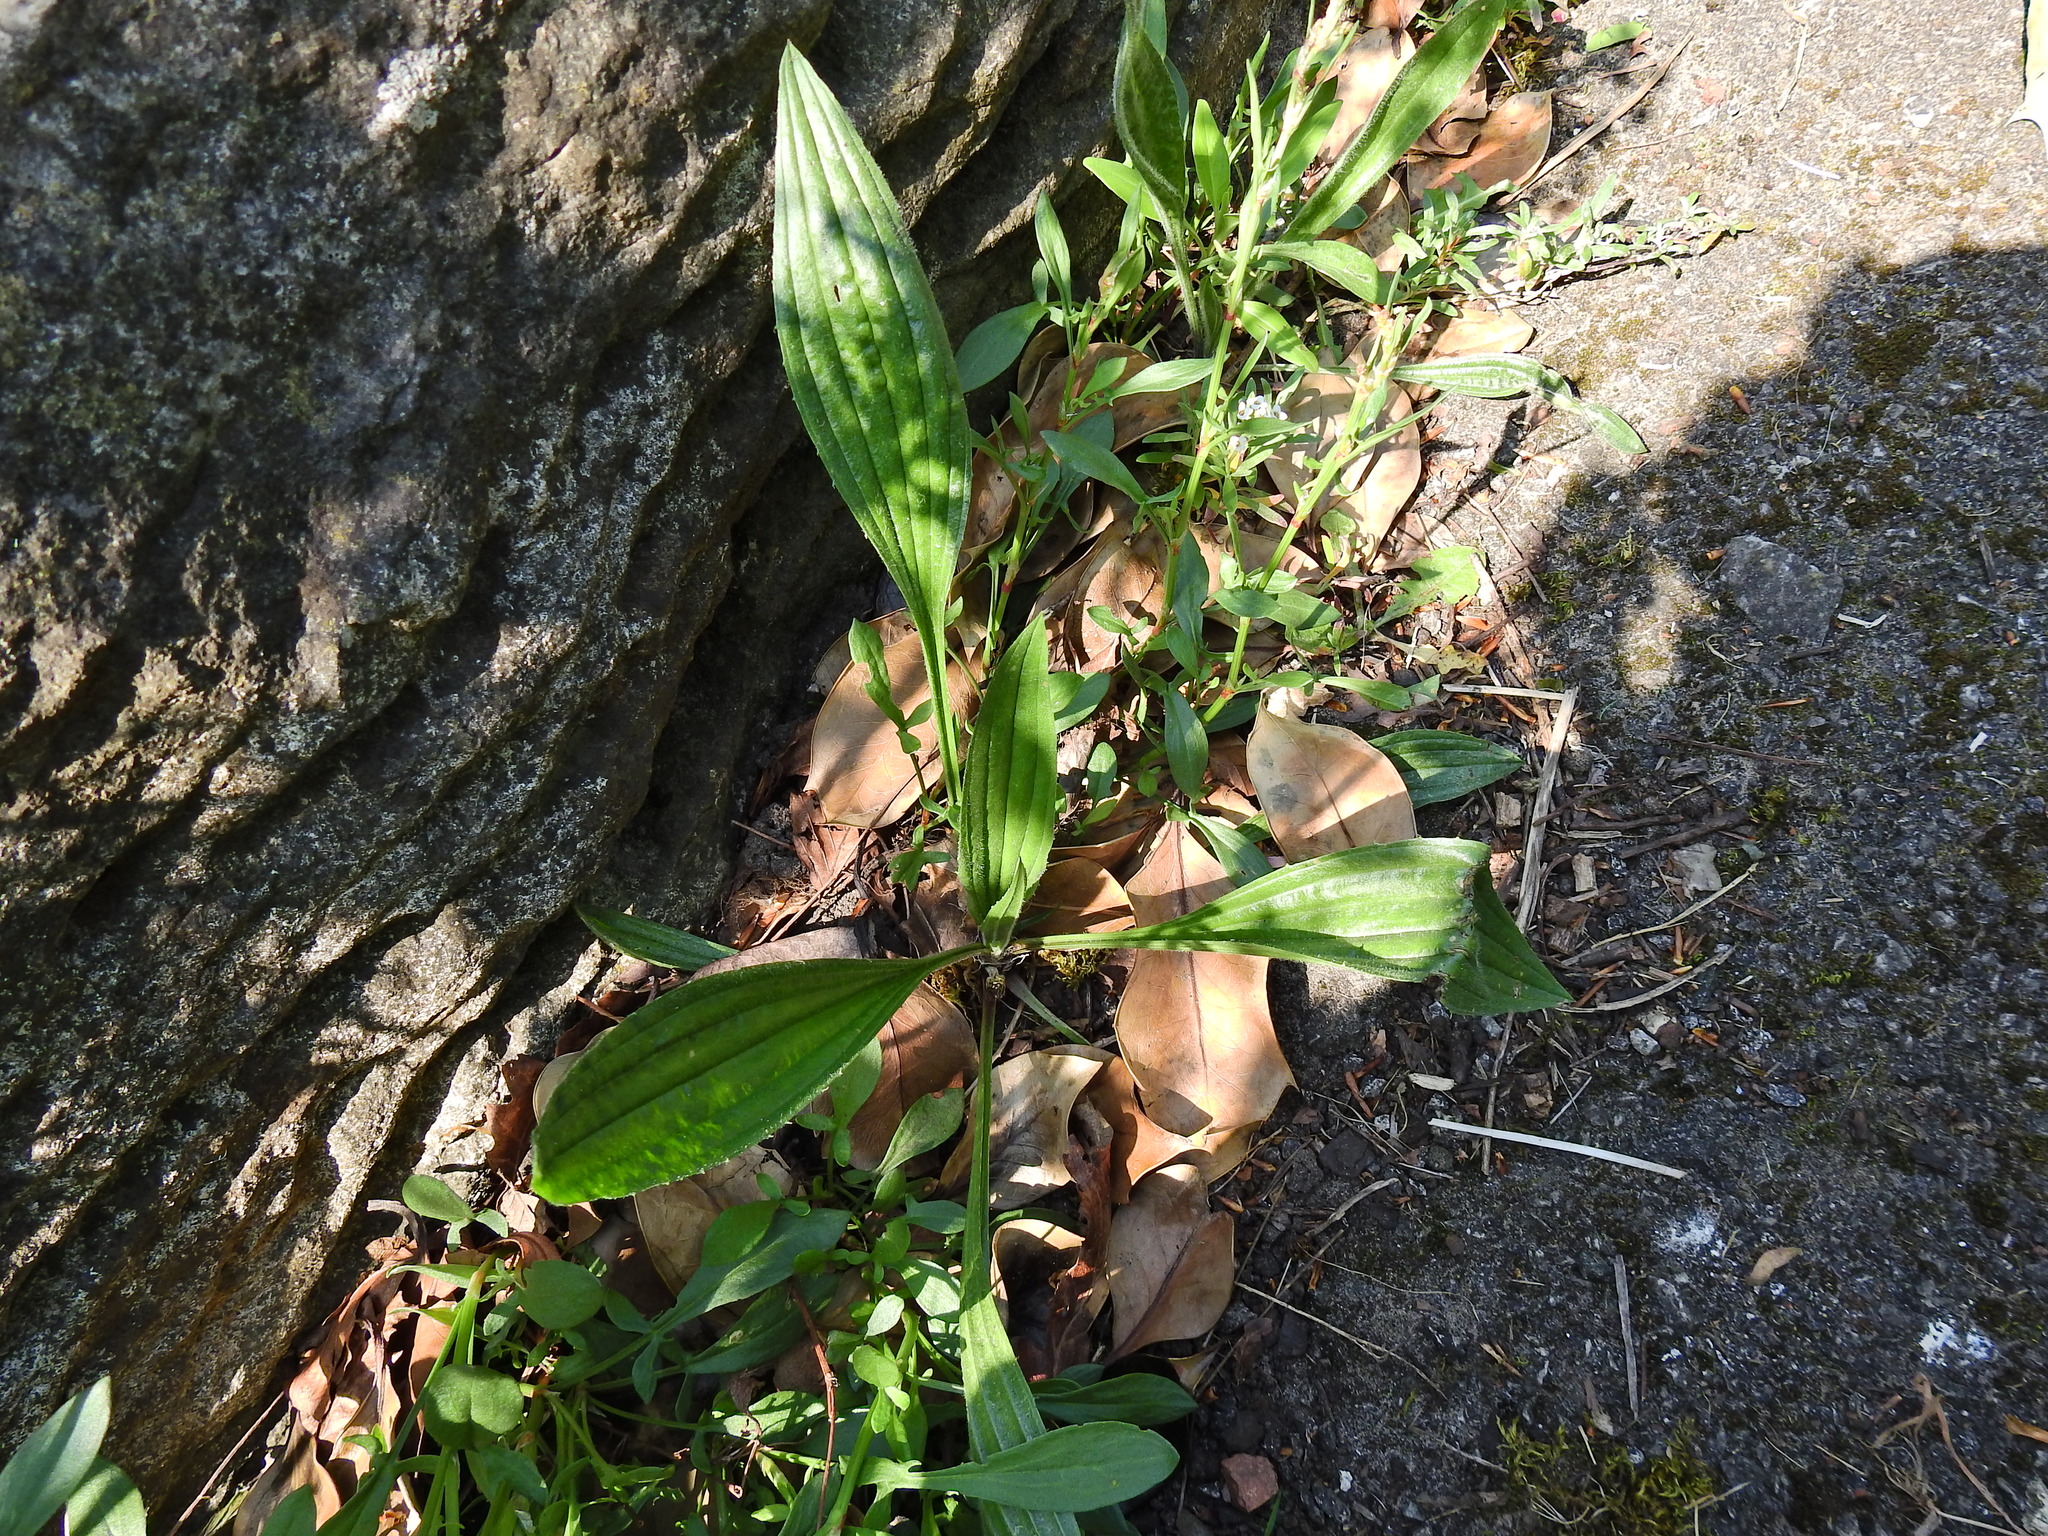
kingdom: Plantae
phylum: Tracheophyta
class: Magnoliopsida
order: Lamiales
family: Plantaginaceae
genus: Plantago
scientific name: Plantago lanceolata
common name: Ribwort plantain
